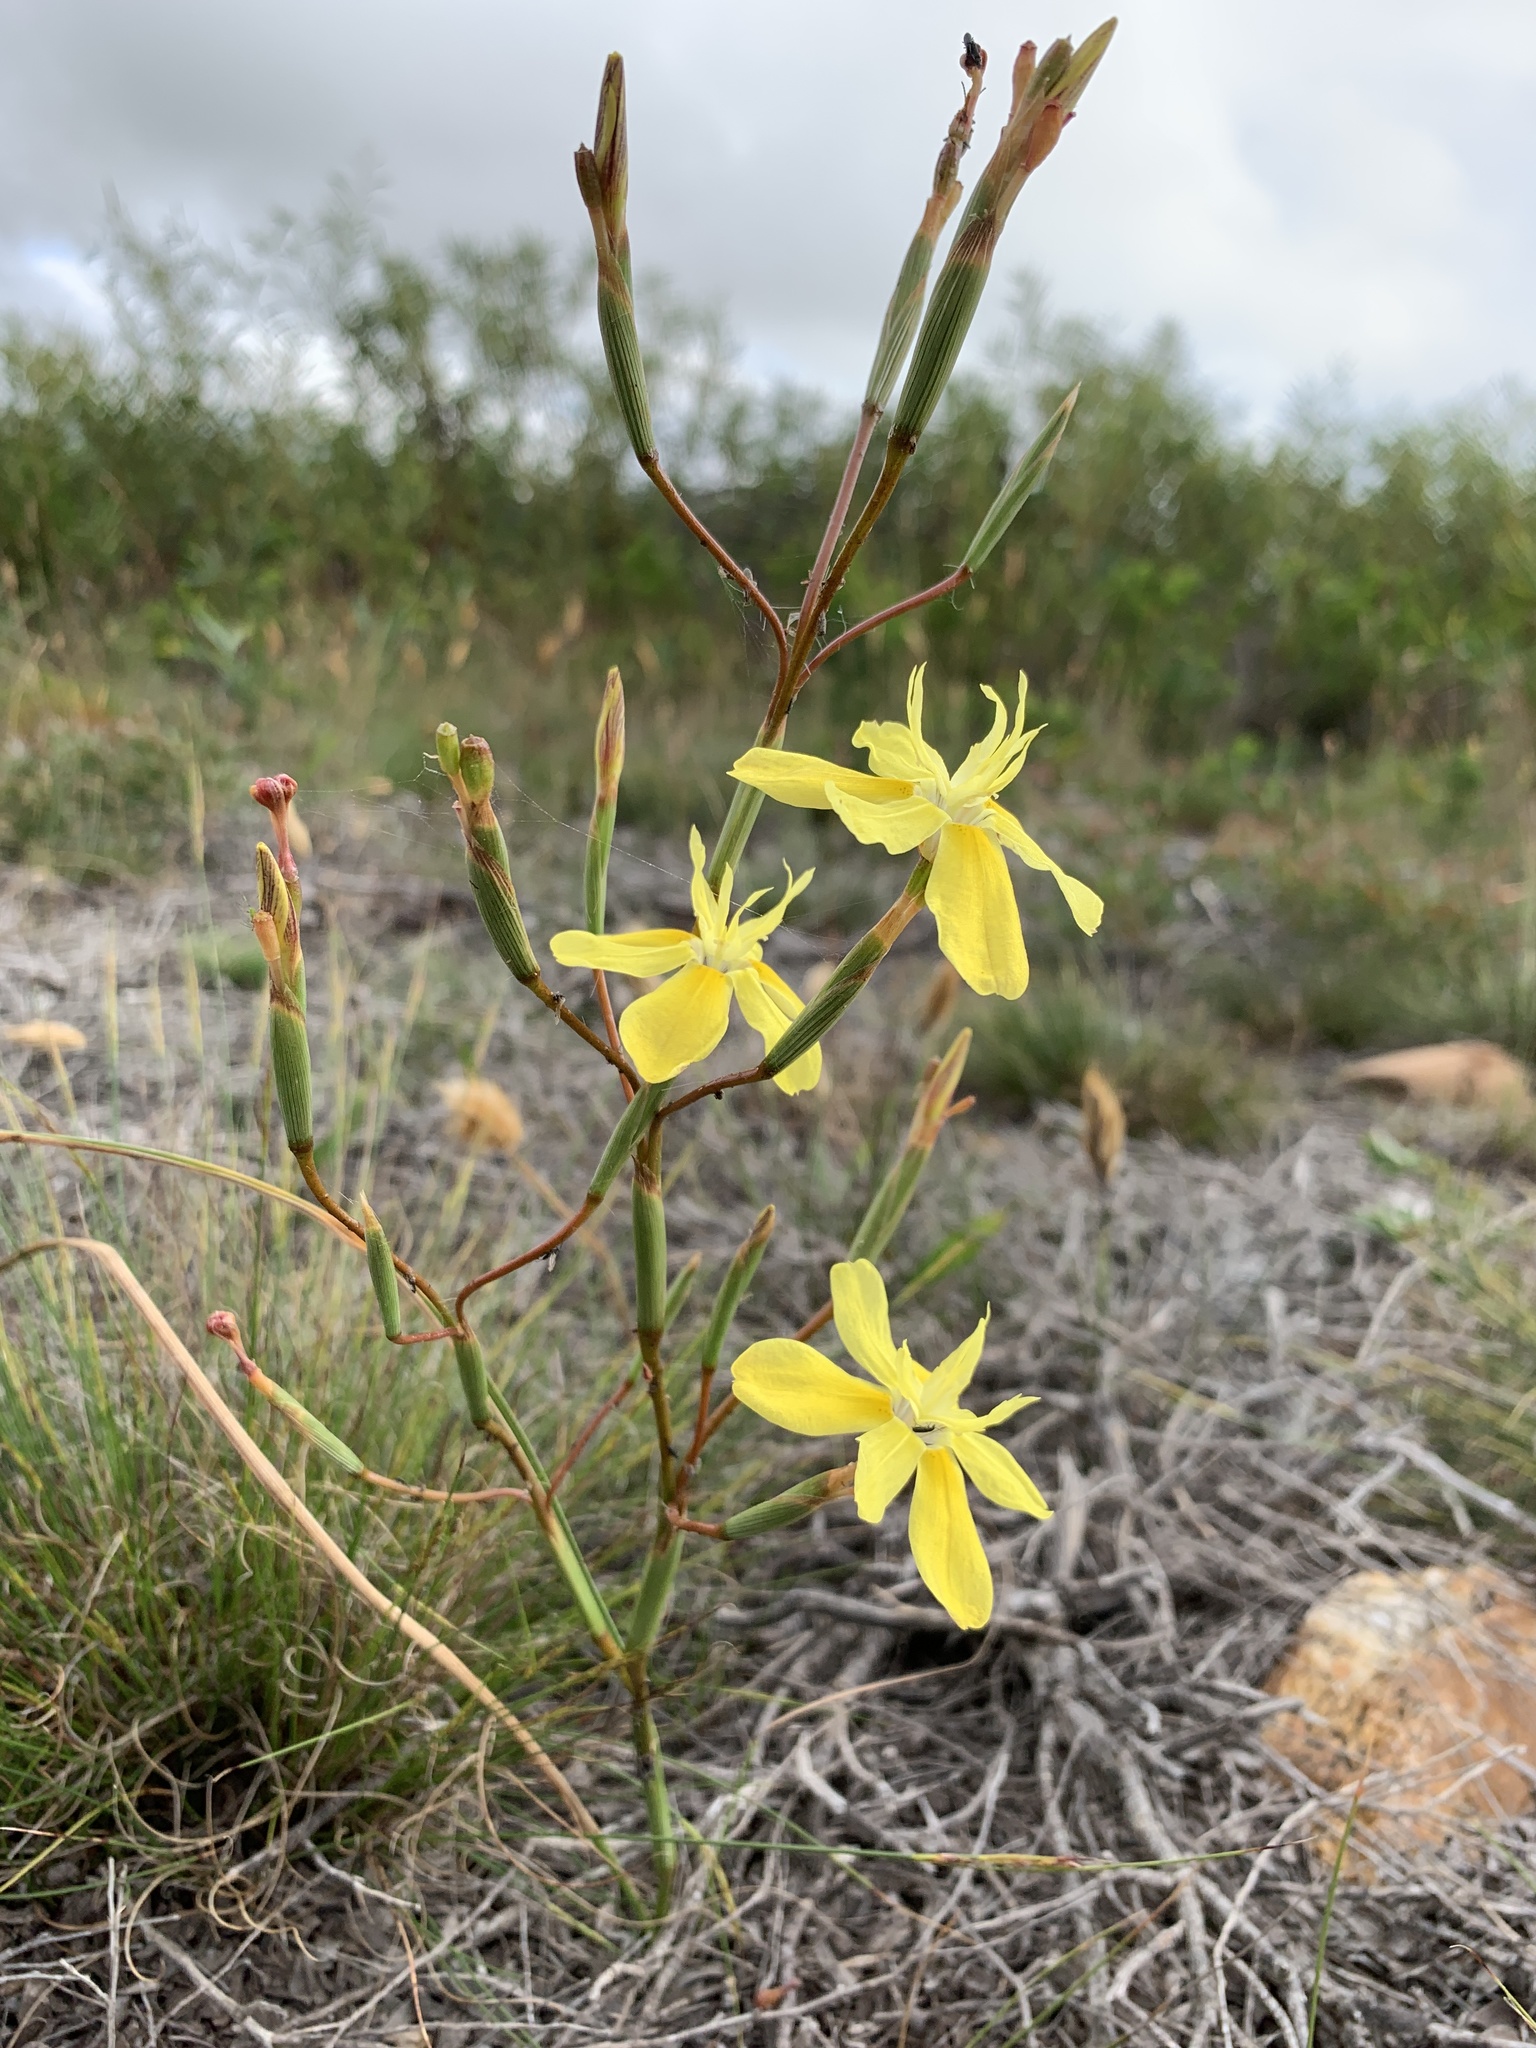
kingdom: Plantae
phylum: Tracheophyta
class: Liliopsida
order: Asparagales
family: Iridaceae
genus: Moraea
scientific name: Moraea bituminosa
